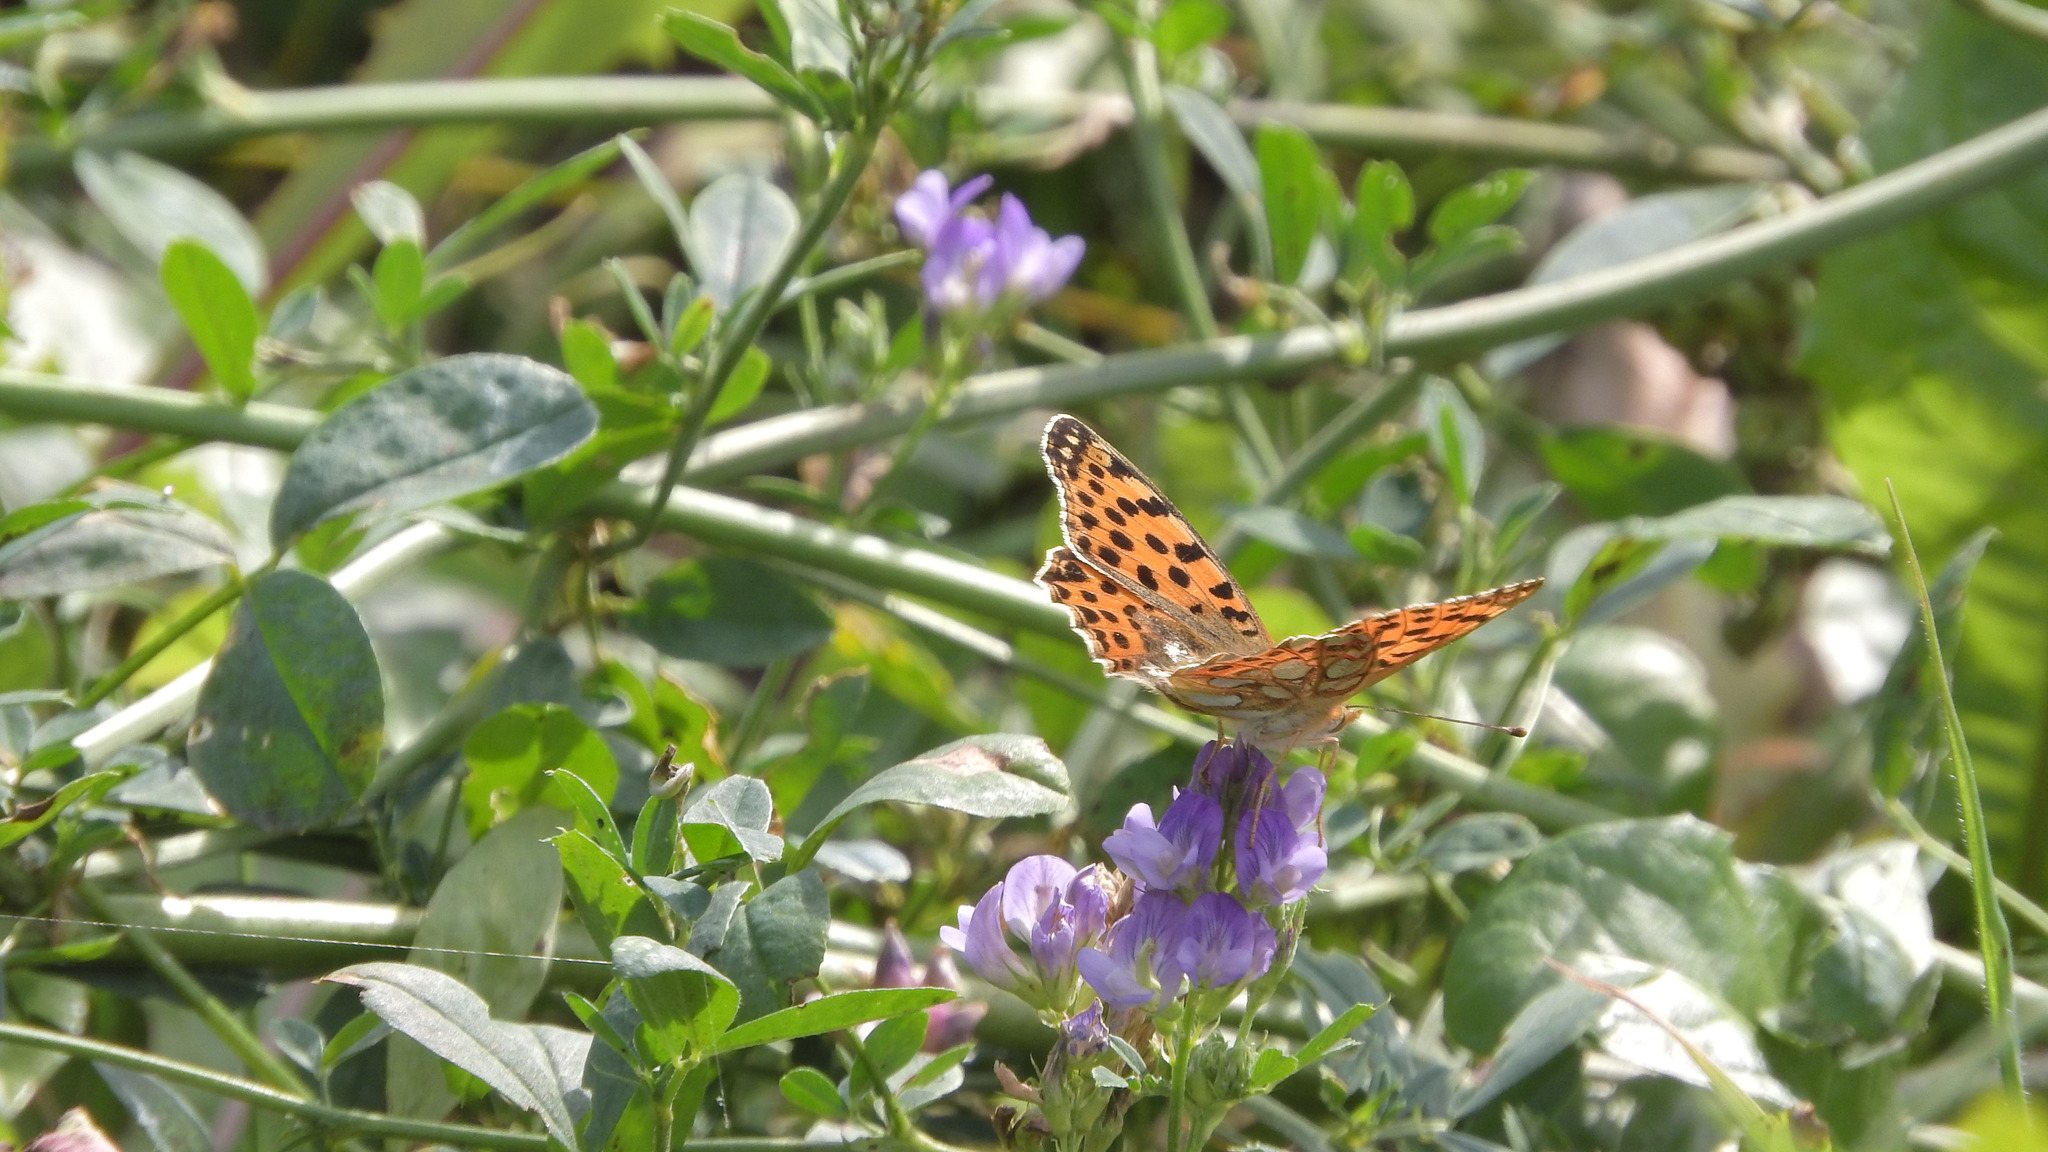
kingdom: Animalia
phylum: Arthropoda
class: Insecta
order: Lepidoptera
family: Nymphalidae
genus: Issoria
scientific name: Issoria lathonia
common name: Queen of spain fritillary
